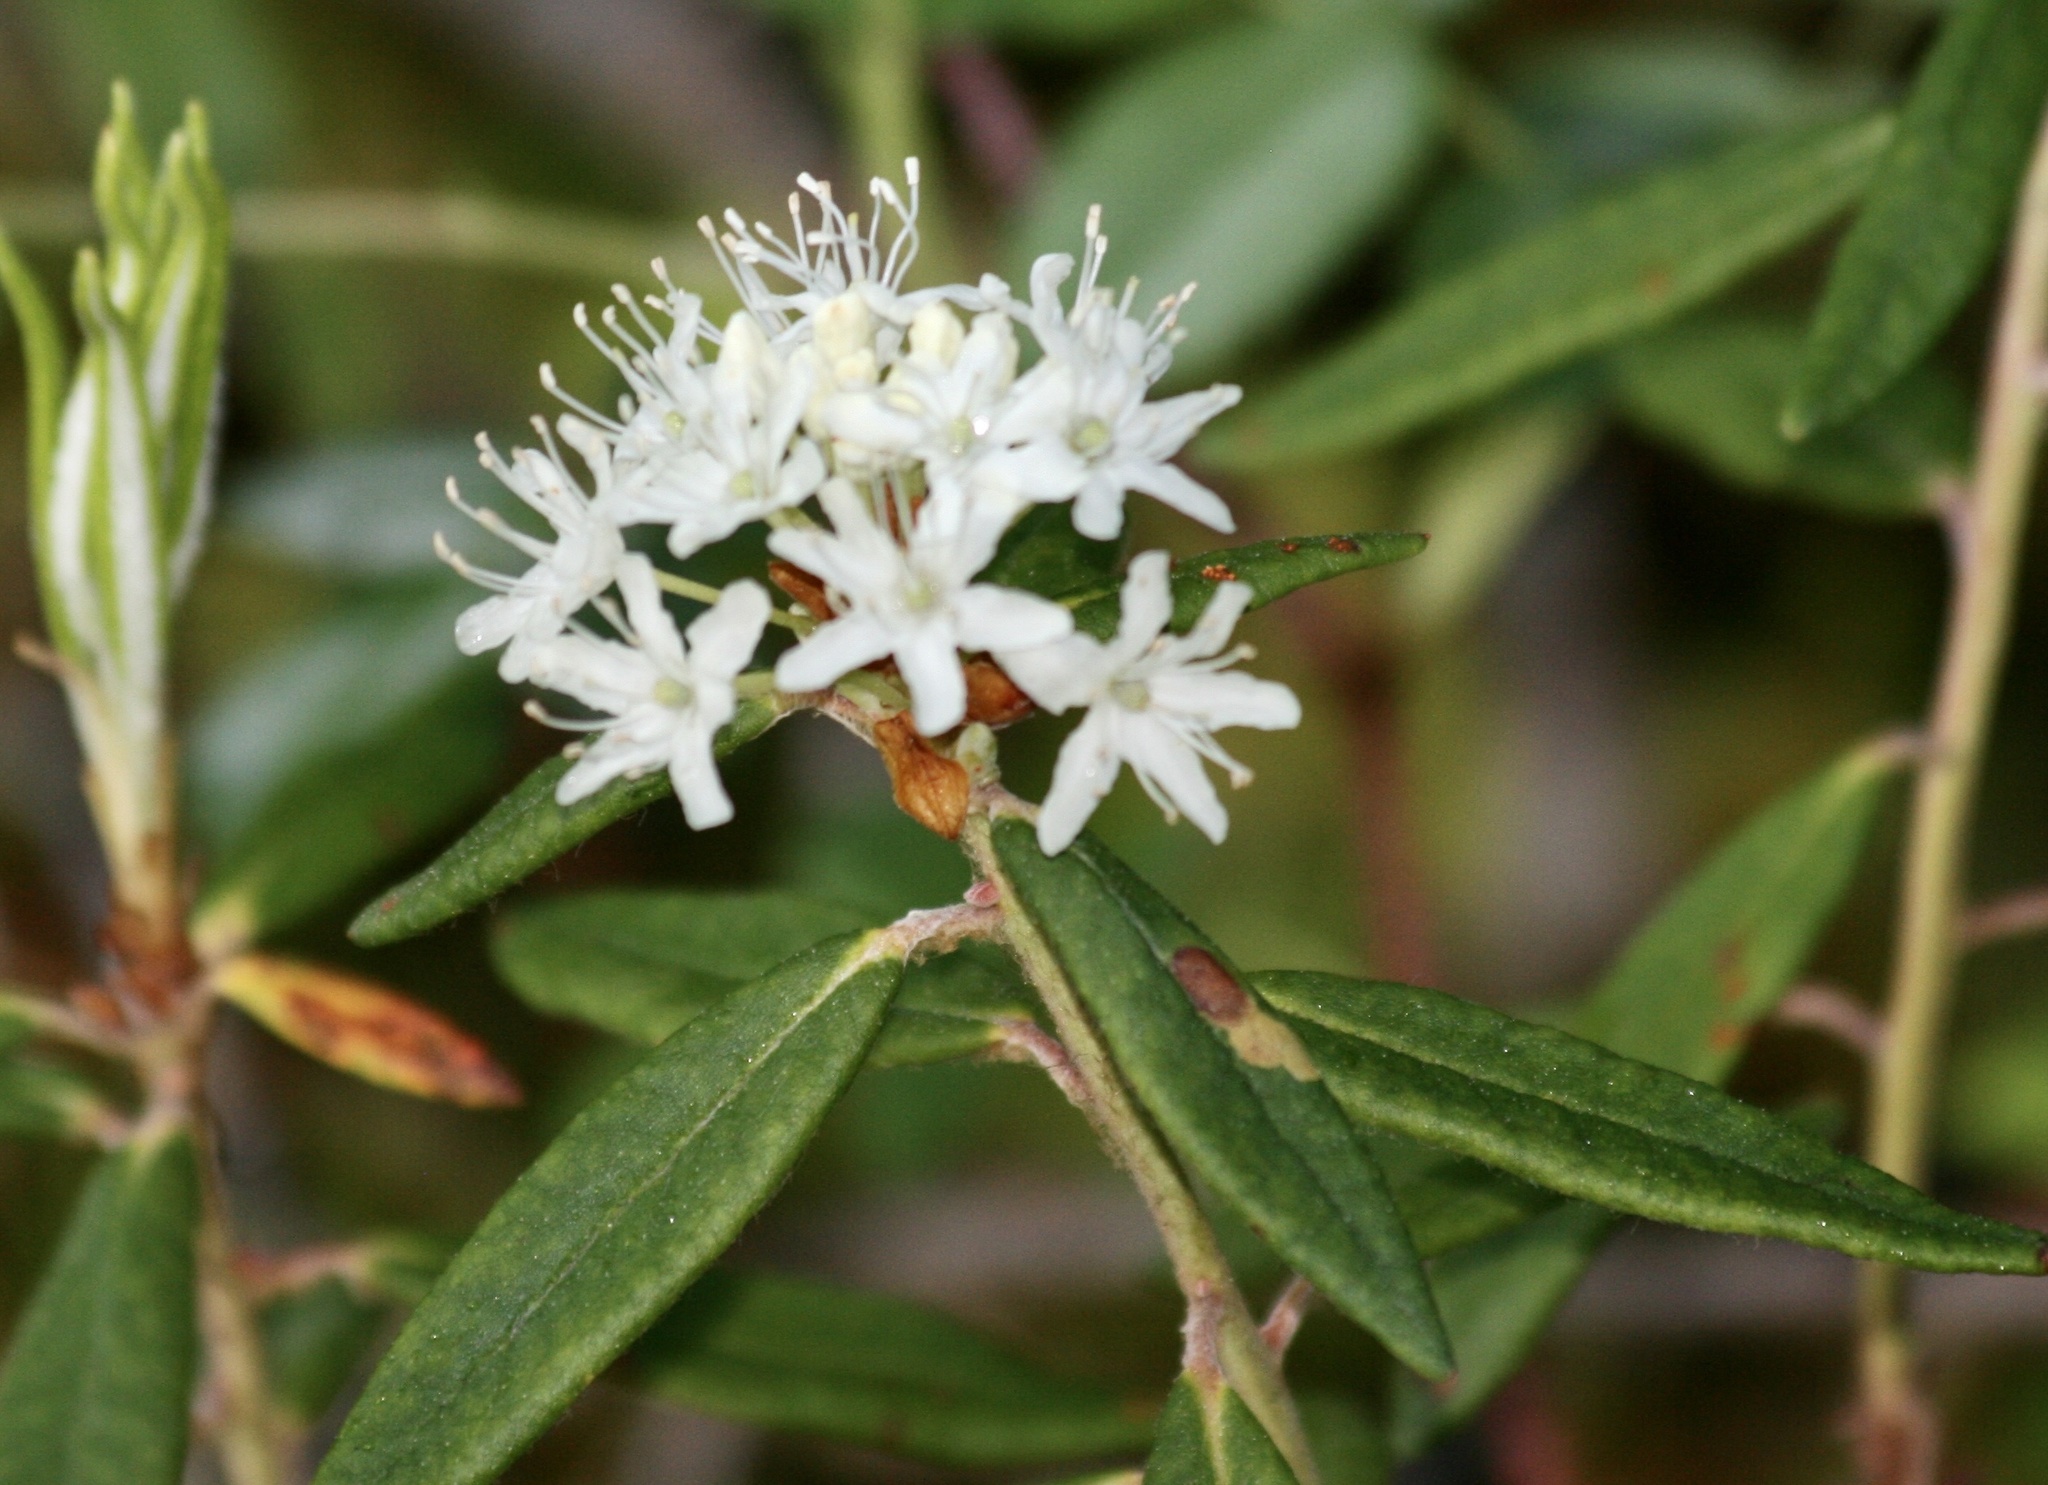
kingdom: Plantae
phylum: Tracheophyta
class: Magnoliopsida
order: Ericales
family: Ericaceae
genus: Rhododendron
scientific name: Rhododendron groenlandicum
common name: Bog labrador tea
